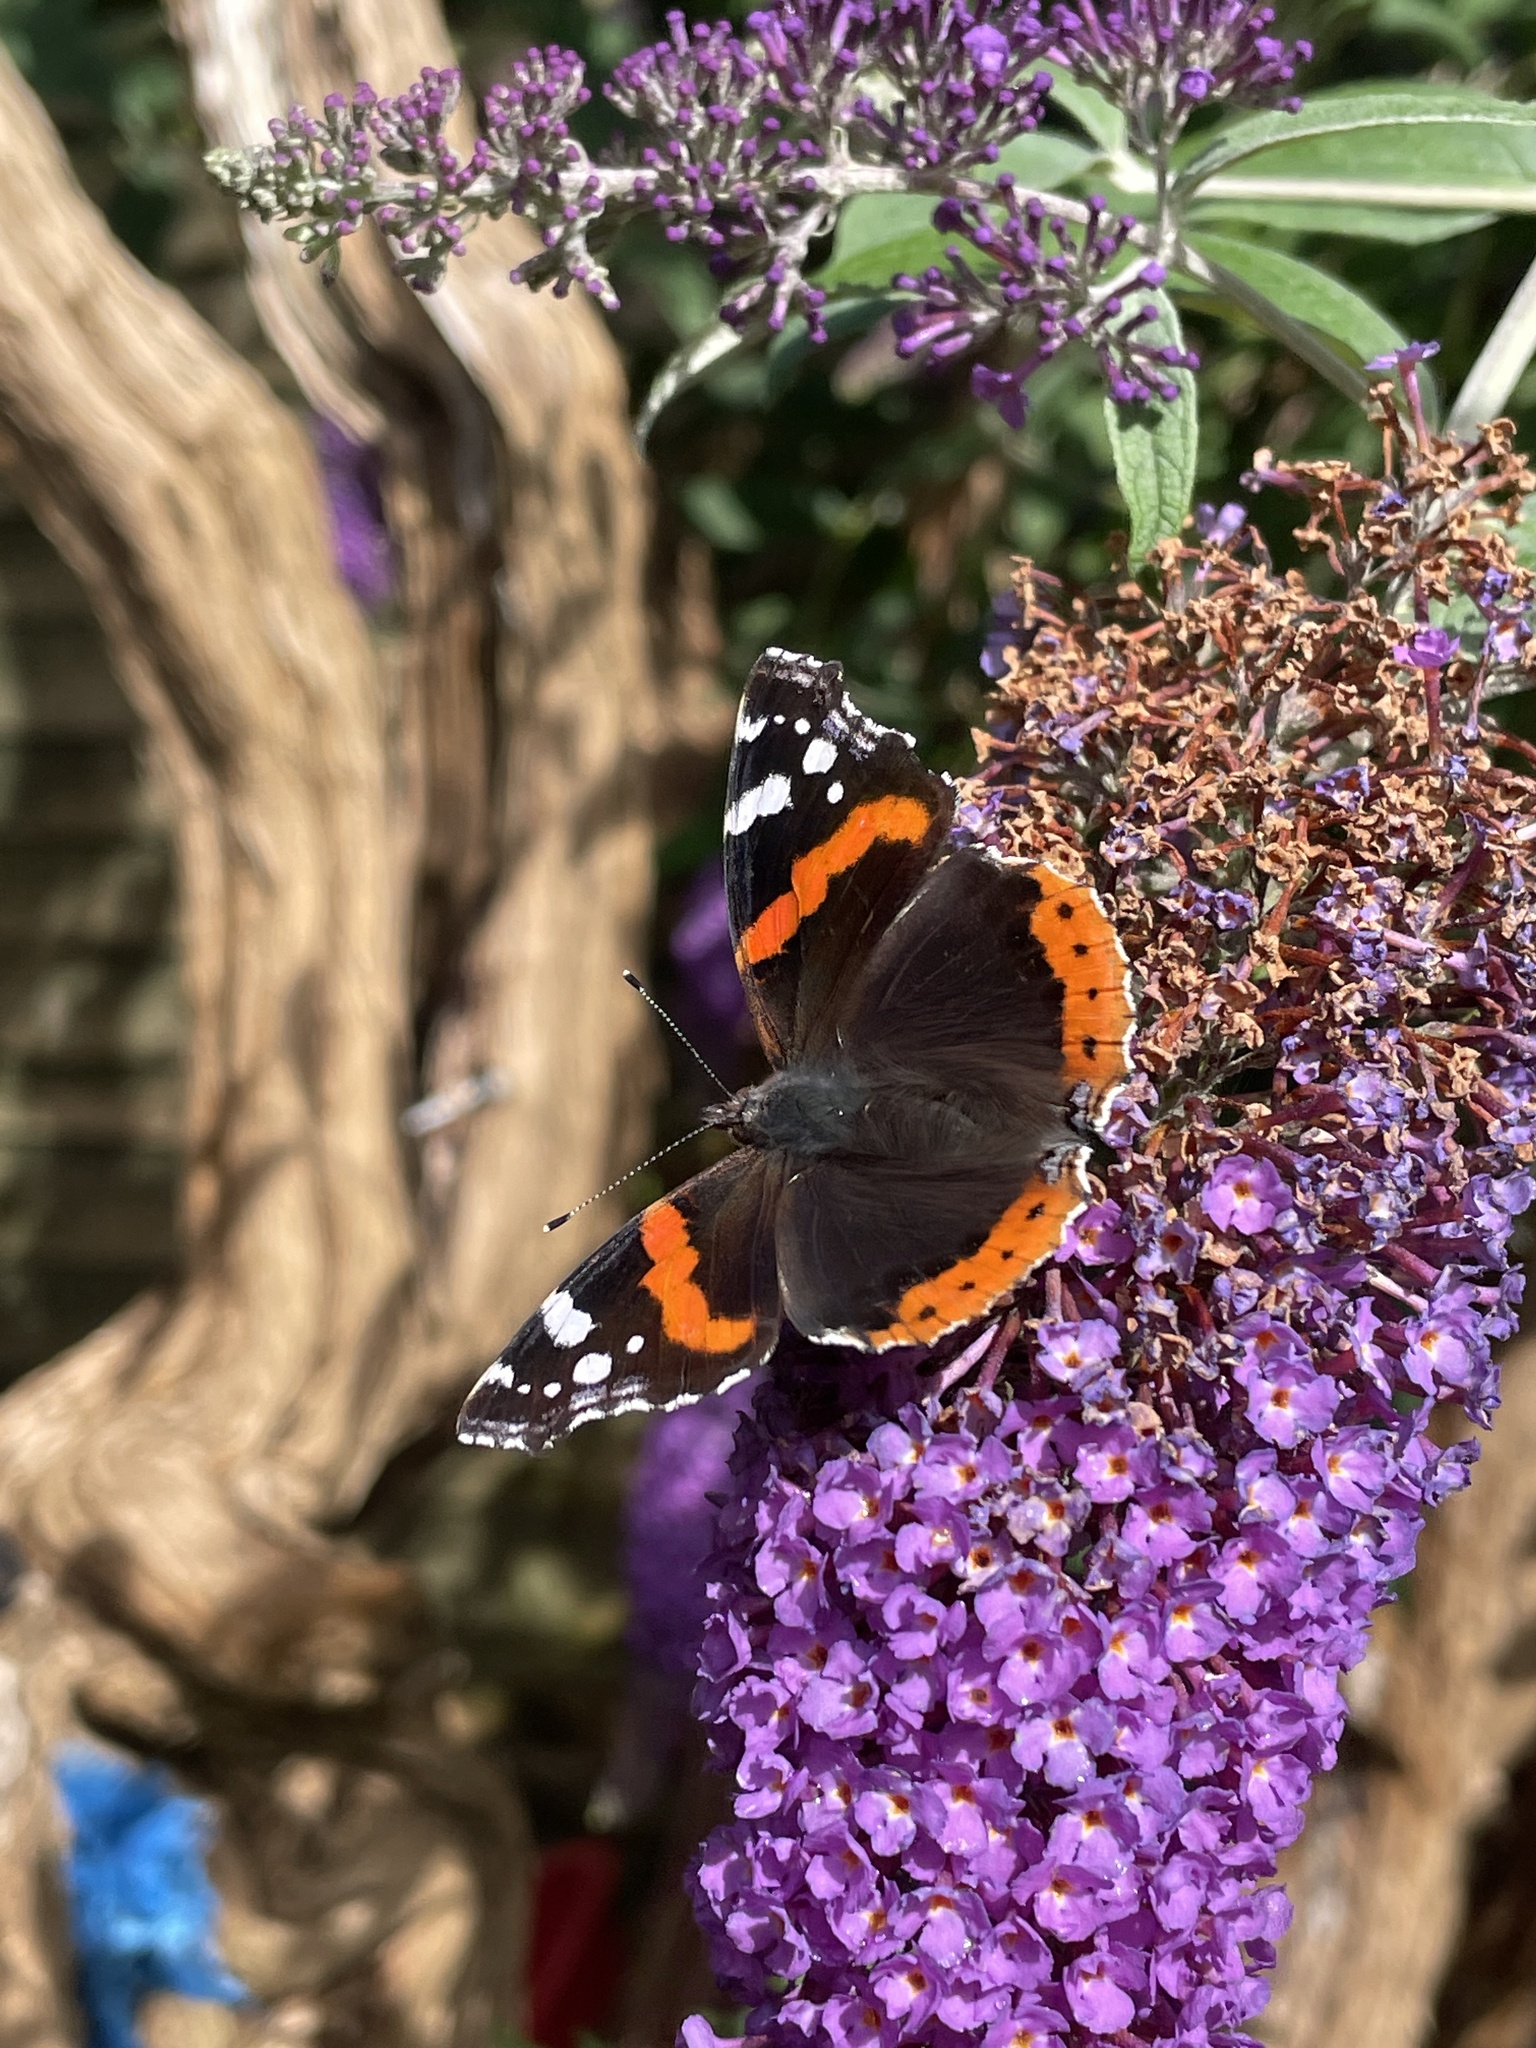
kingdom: Animalia
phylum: Arthropoda
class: Insecta
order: Lepidoptera
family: Nymphalidae
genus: Vanessa
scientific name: Vanessa atalanta
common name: Red admiral
